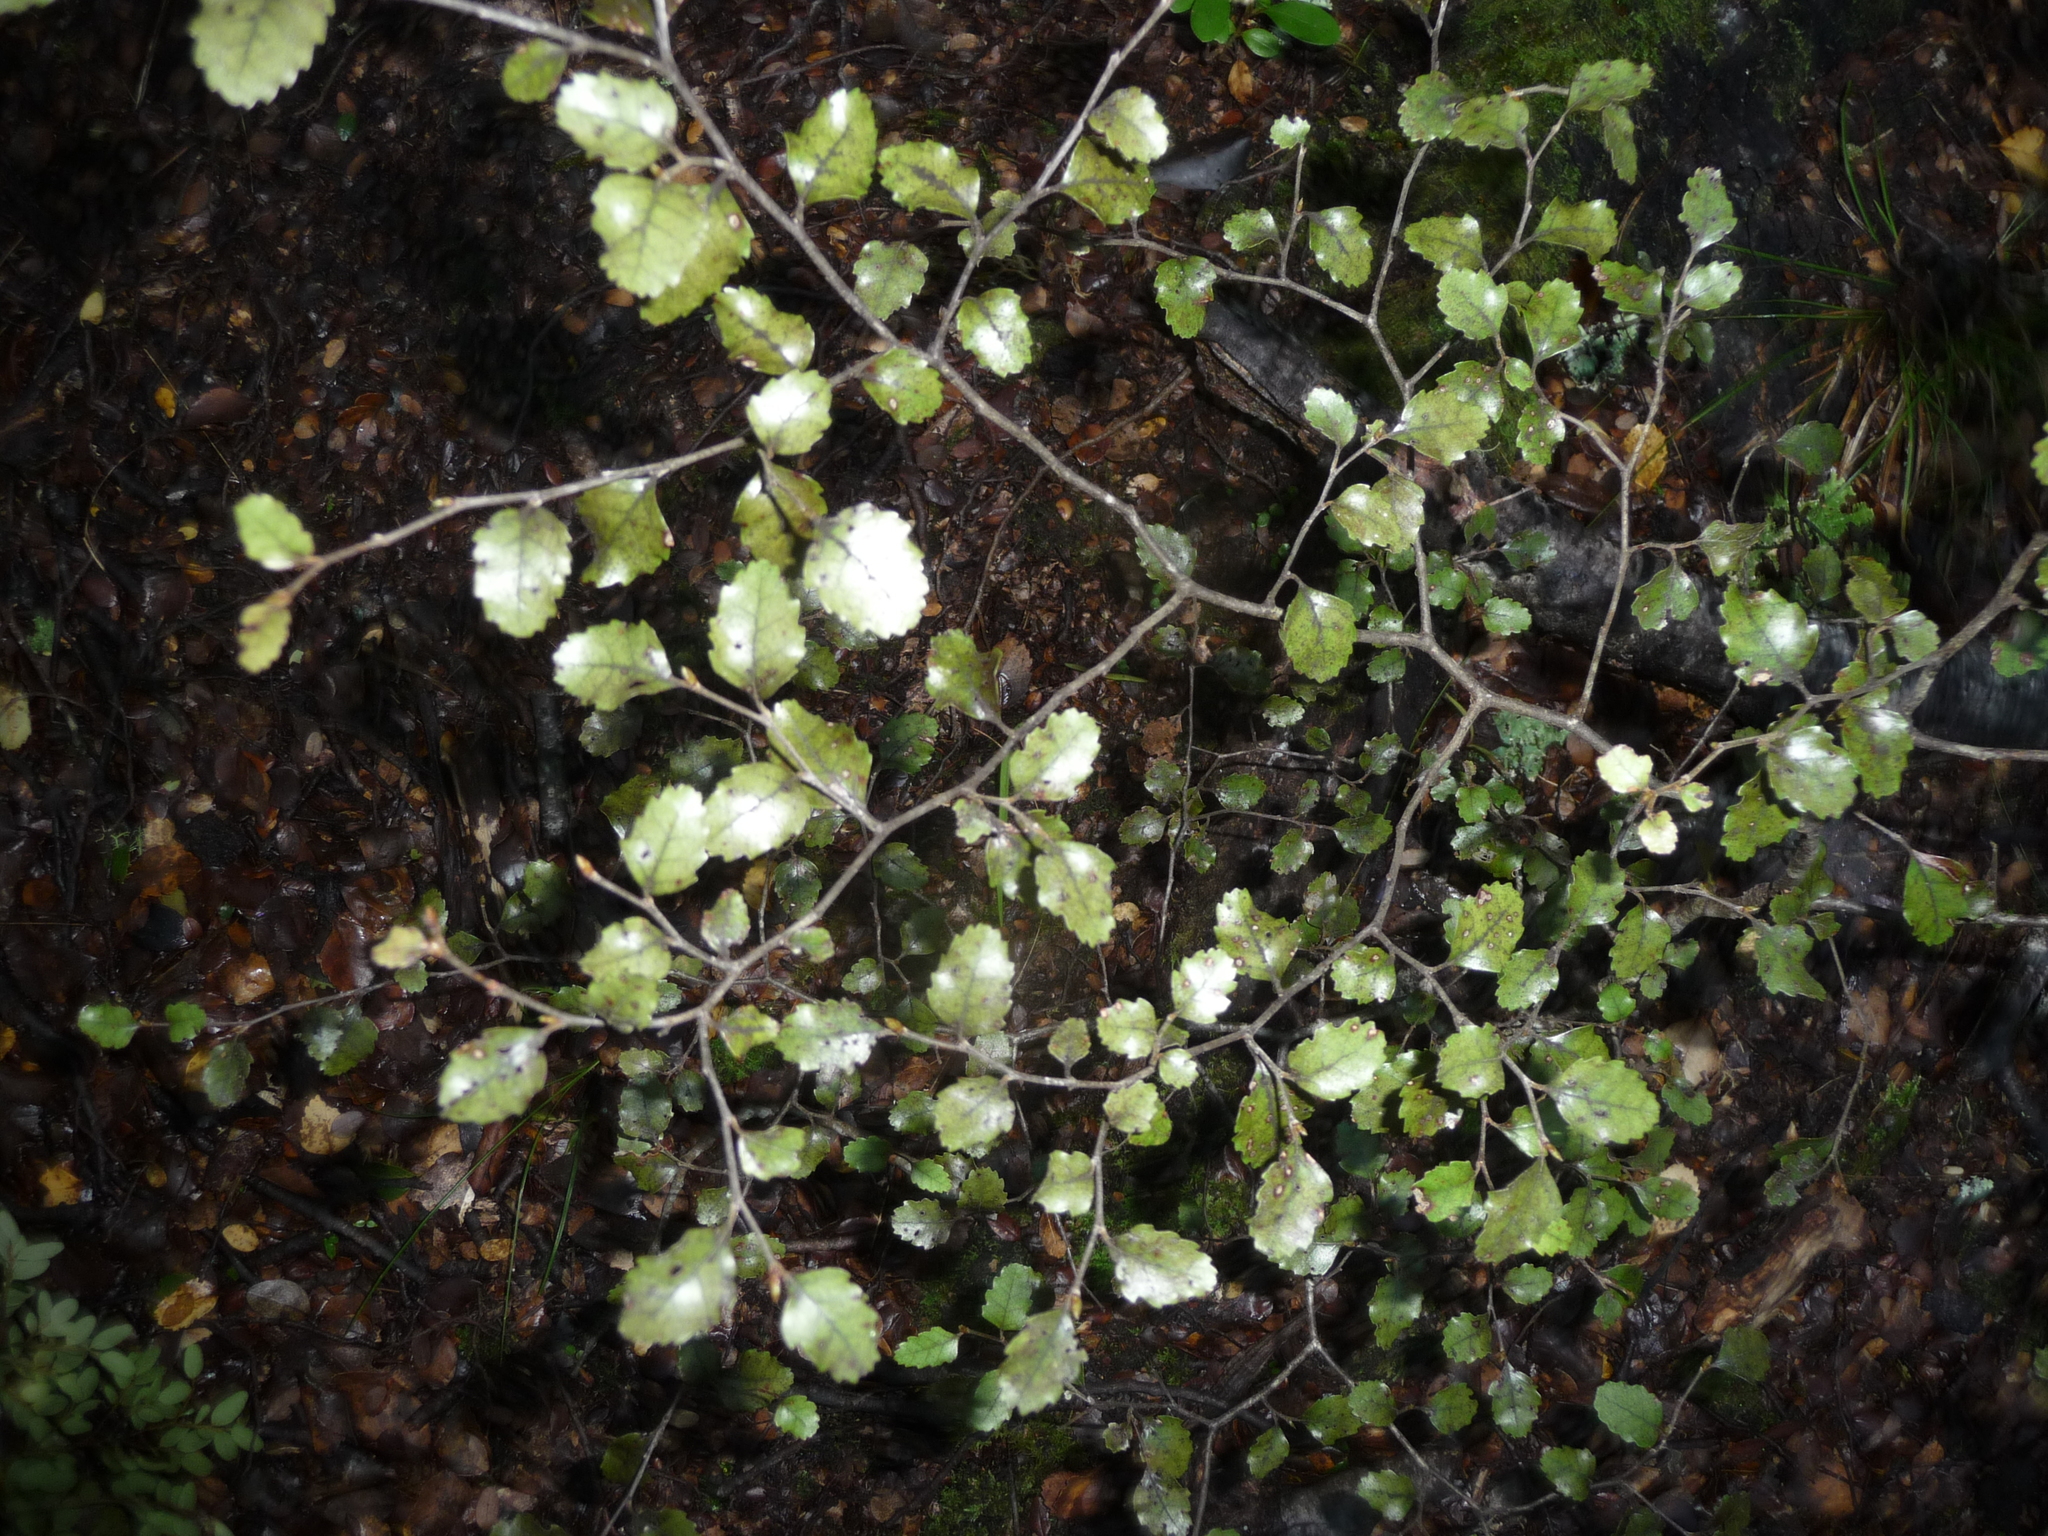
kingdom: Plantae
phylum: Tracheophyta
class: Magnoliopsida
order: Fagales
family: Nothofagaceae
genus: Nothofagus
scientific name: Nothofagus truncata
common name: Hard beech
